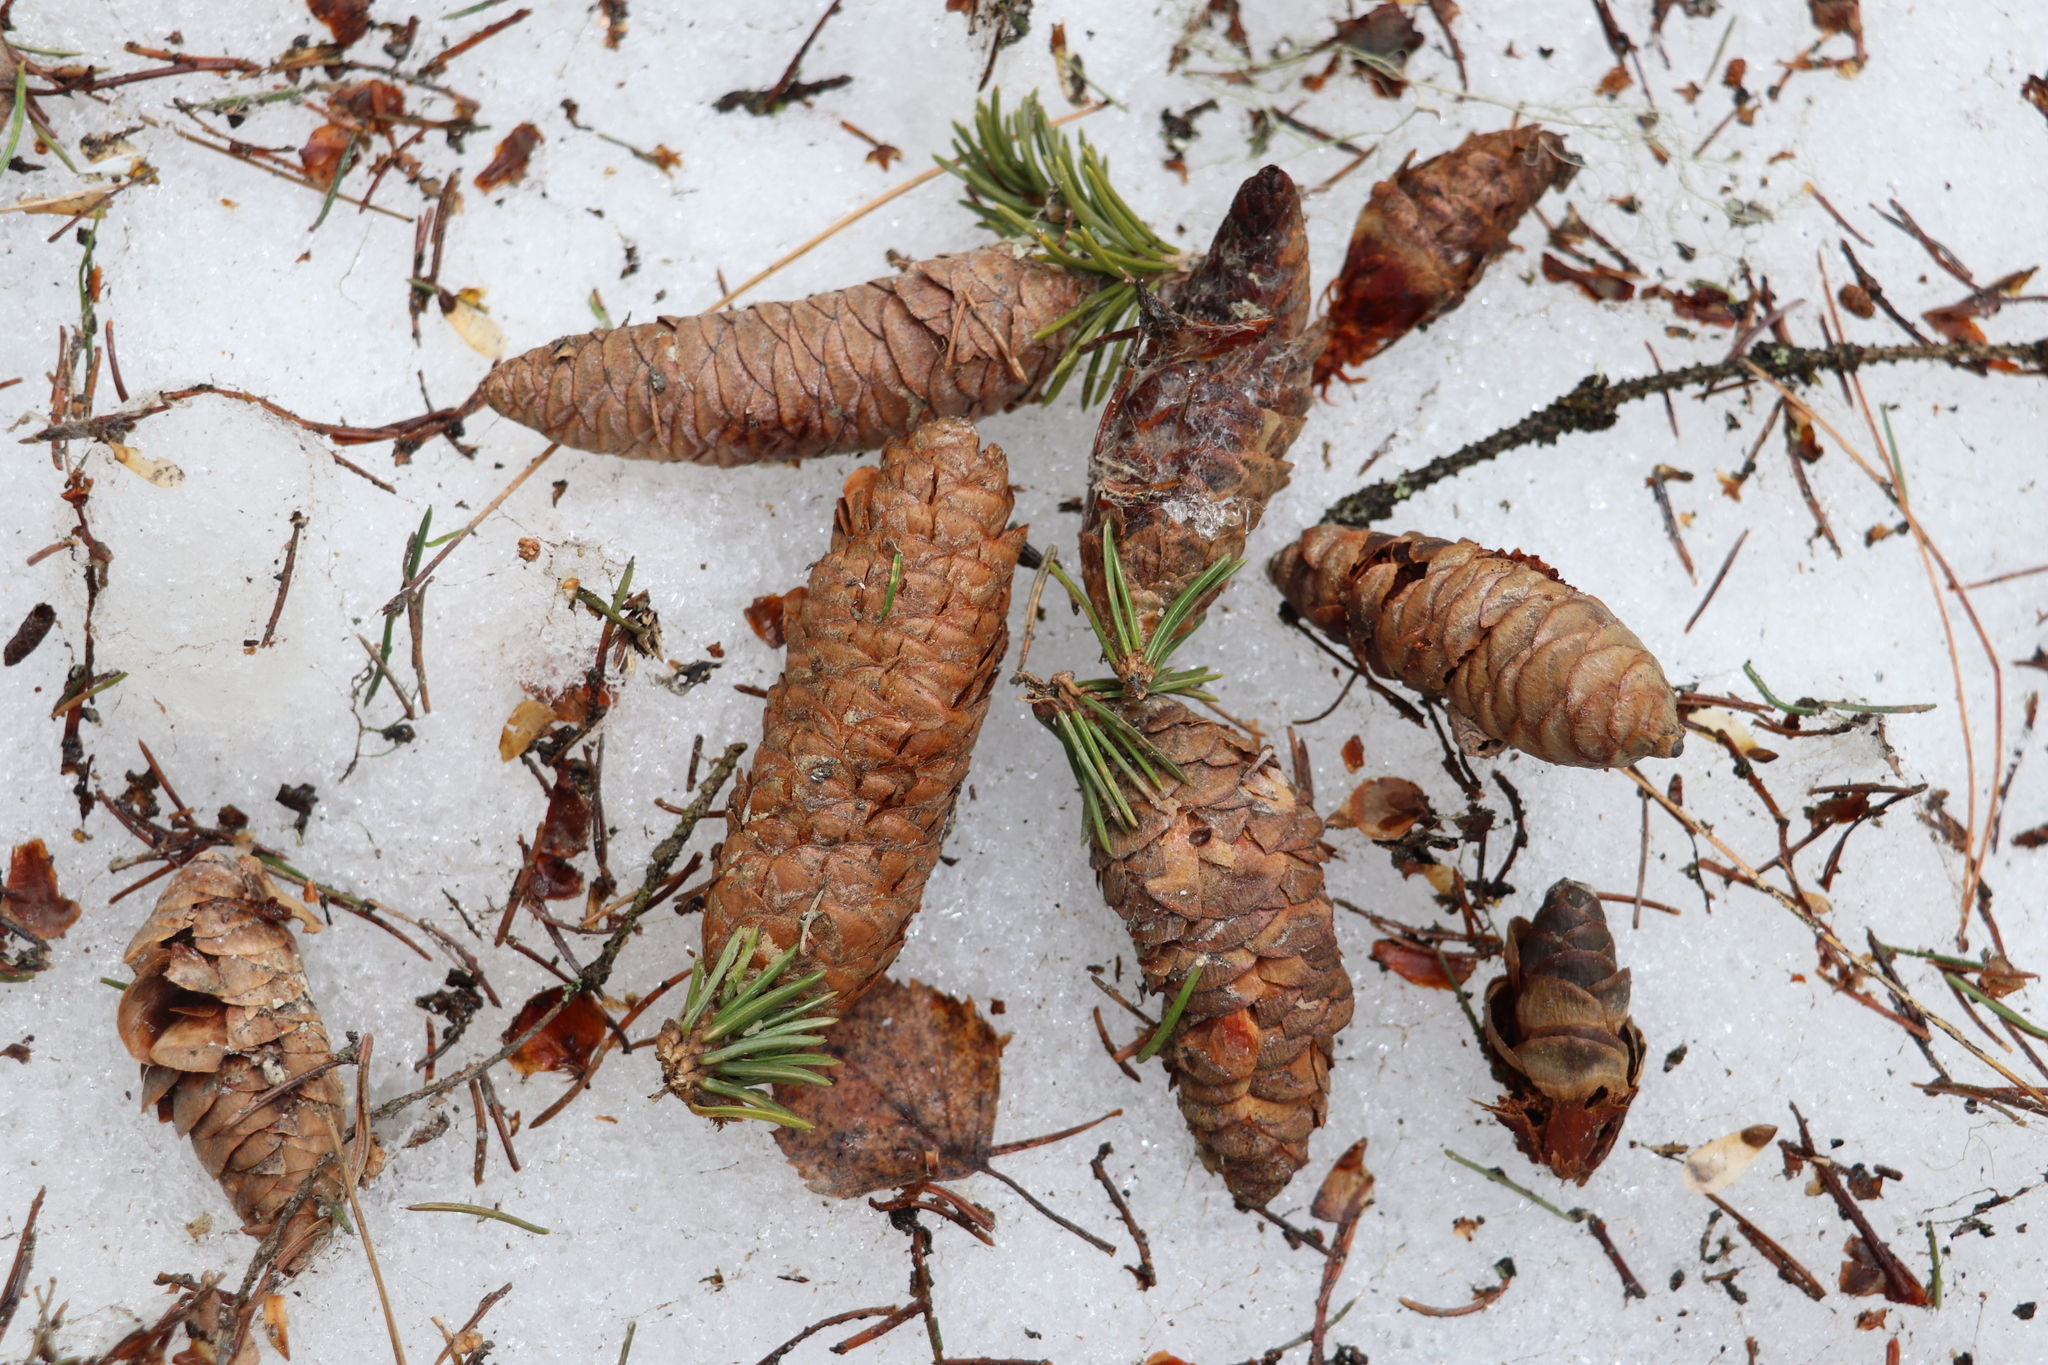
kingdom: Plantae
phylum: Tracheophyta
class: Pinopsida
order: Pinales
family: Pinaceae
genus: Picea
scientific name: Picea obovata
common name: Siberian spruce
